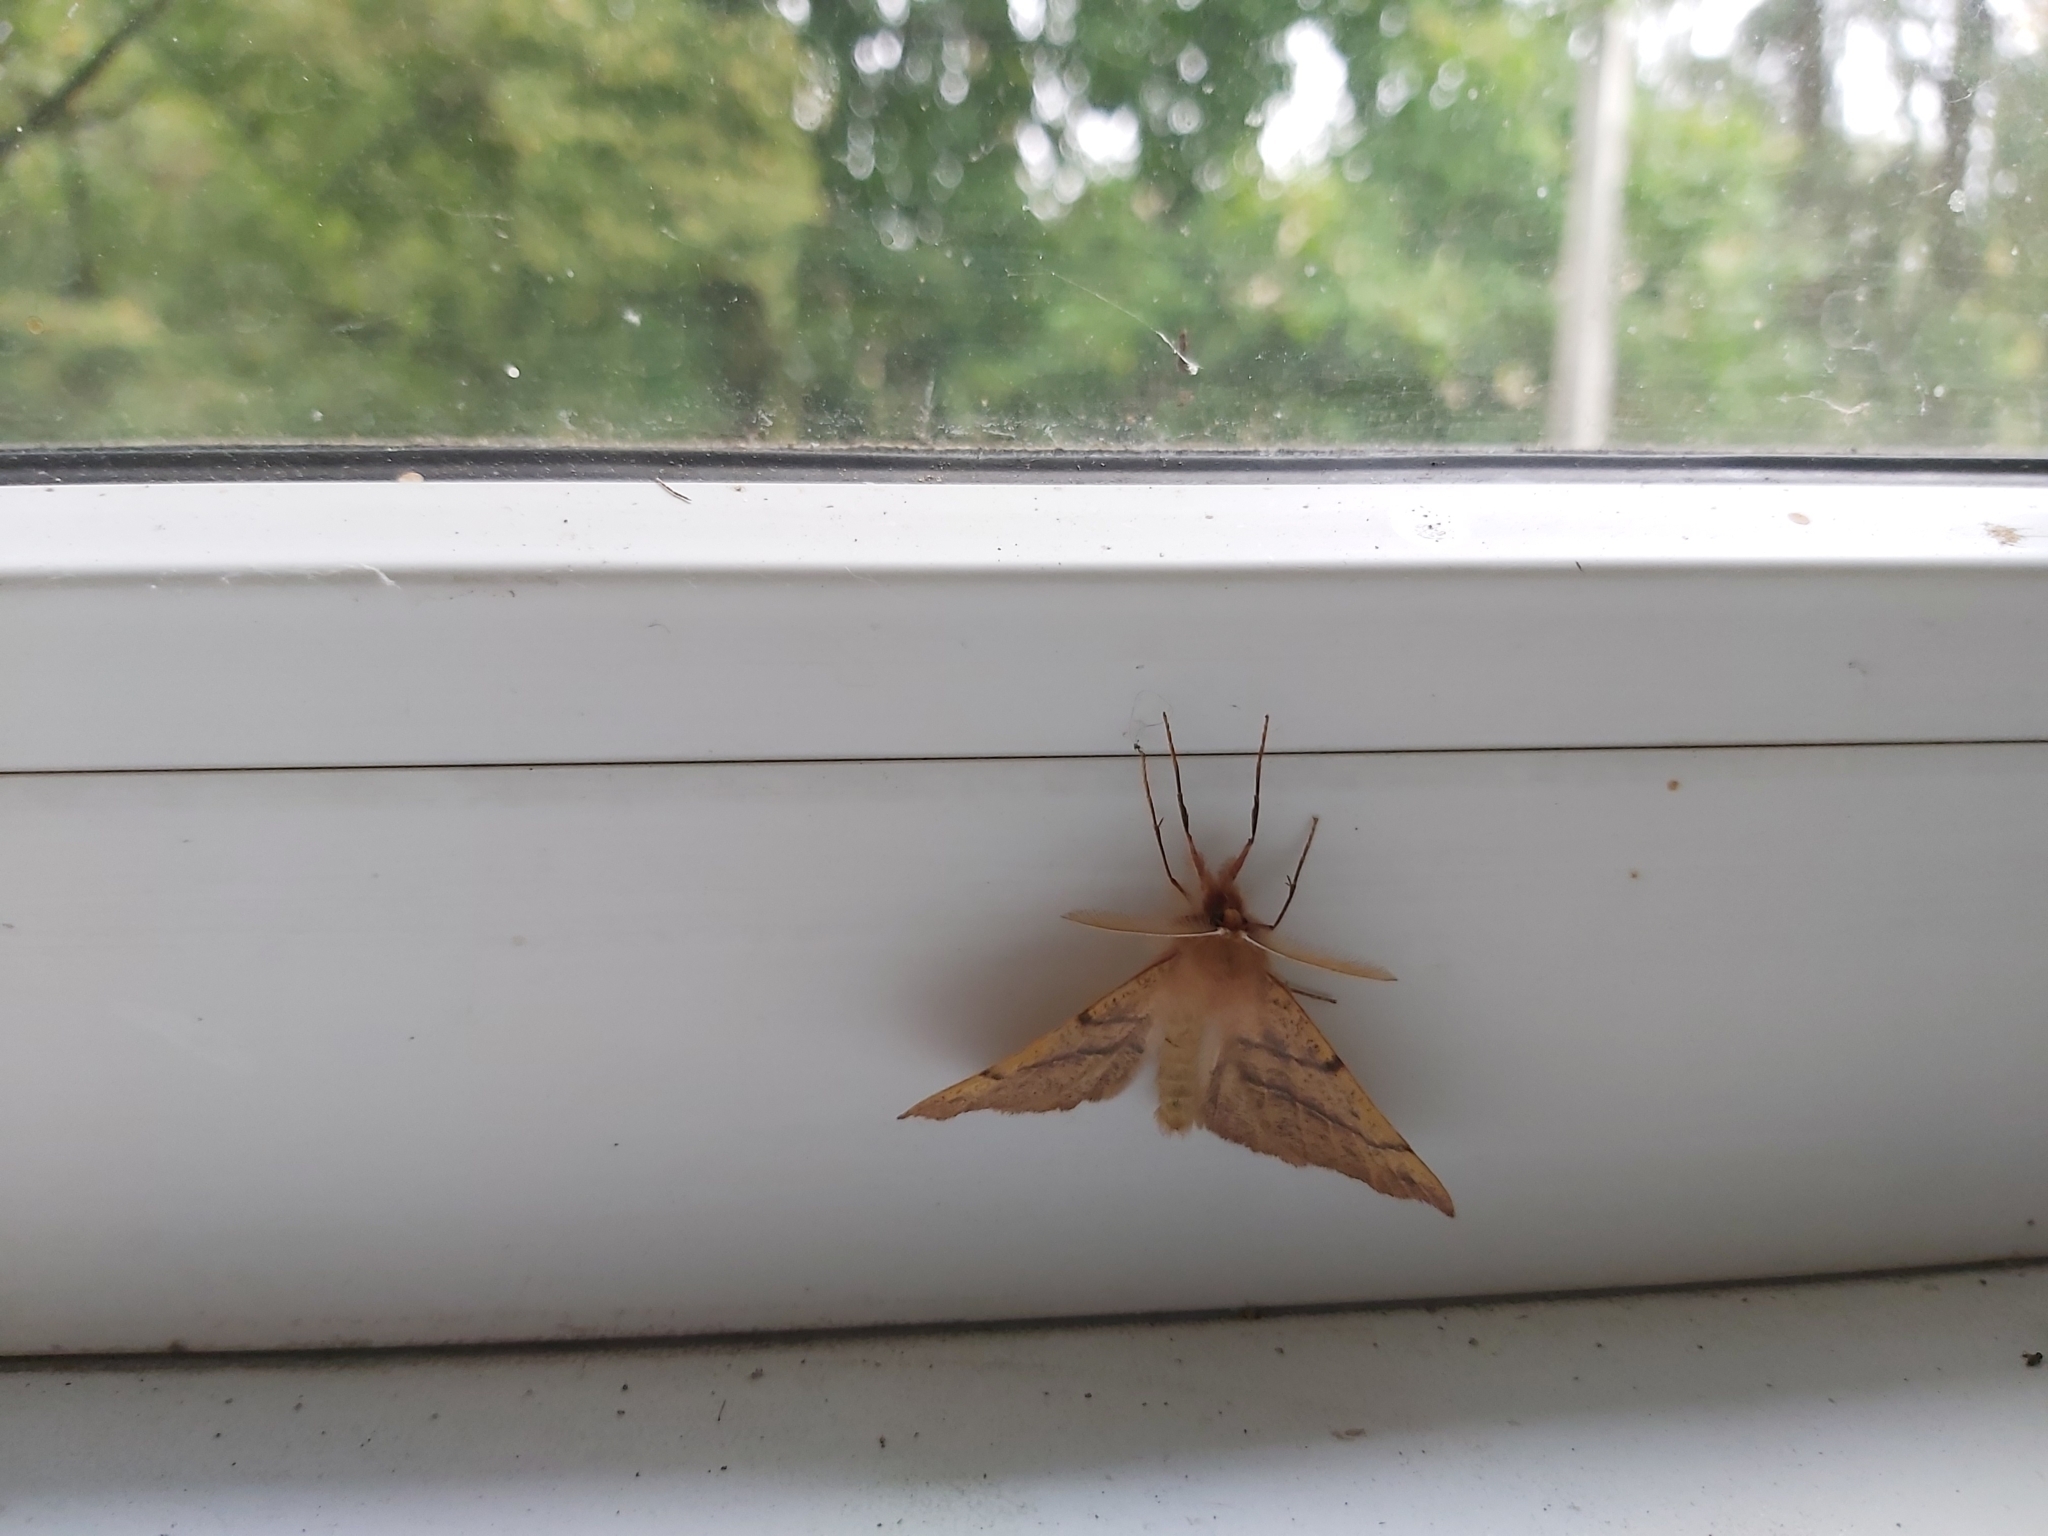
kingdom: Animalia
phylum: Arthropoda
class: Insecta
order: Lepidoptera
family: Geometridae
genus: Colotois
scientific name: Colotois pennaria
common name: Feathered thorn
